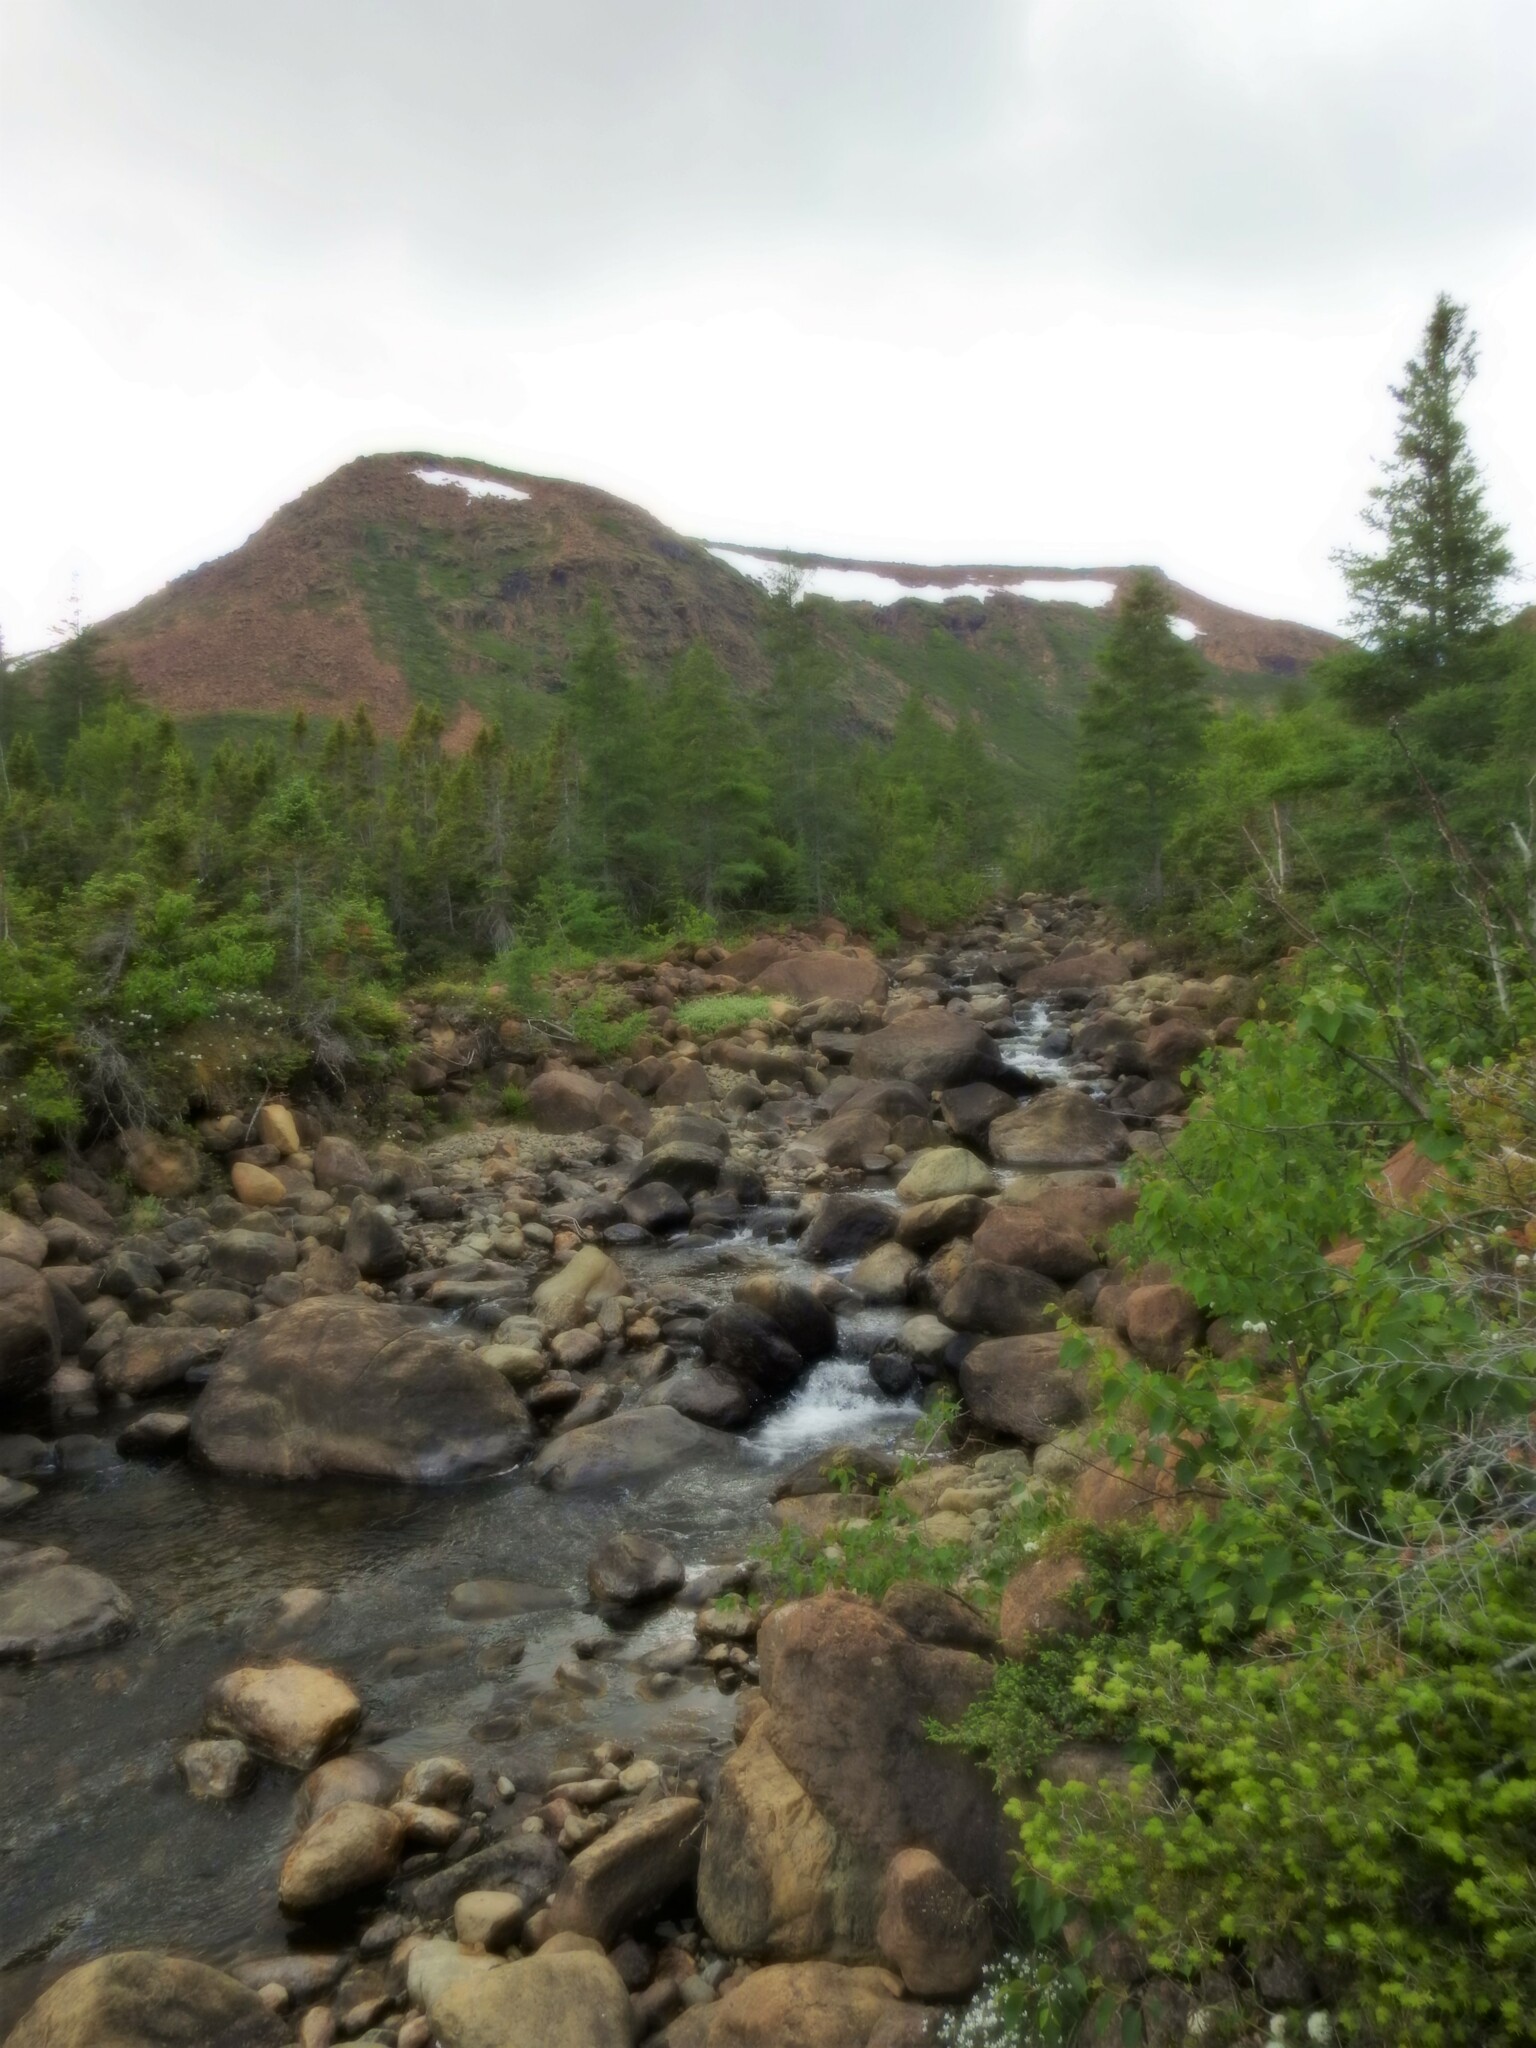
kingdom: Plantae
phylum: Tracheophyta
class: Pinopsida
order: Pinales
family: Pinaceae
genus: Larix
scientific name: Larix laricina
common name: American larch
